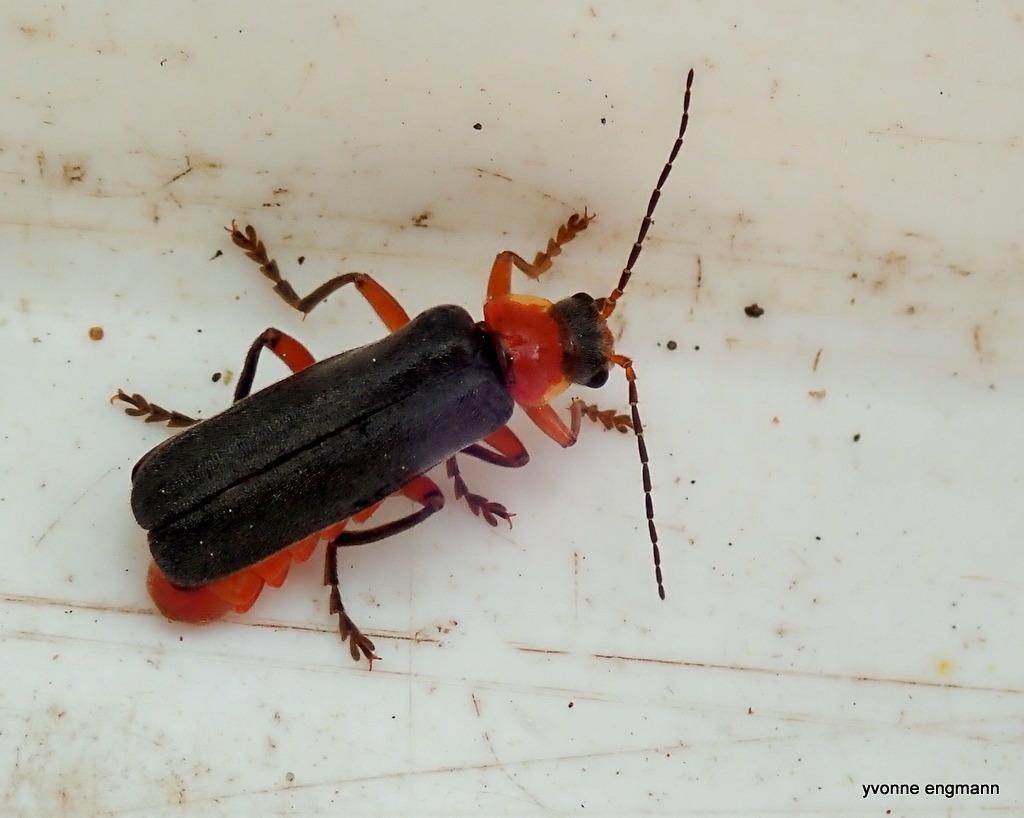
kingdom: Animalia
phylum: Arthropoda
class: Insecta
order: Coleoptera
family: Cantharidae
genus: Cantharis
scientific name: Cantharis pellucida
